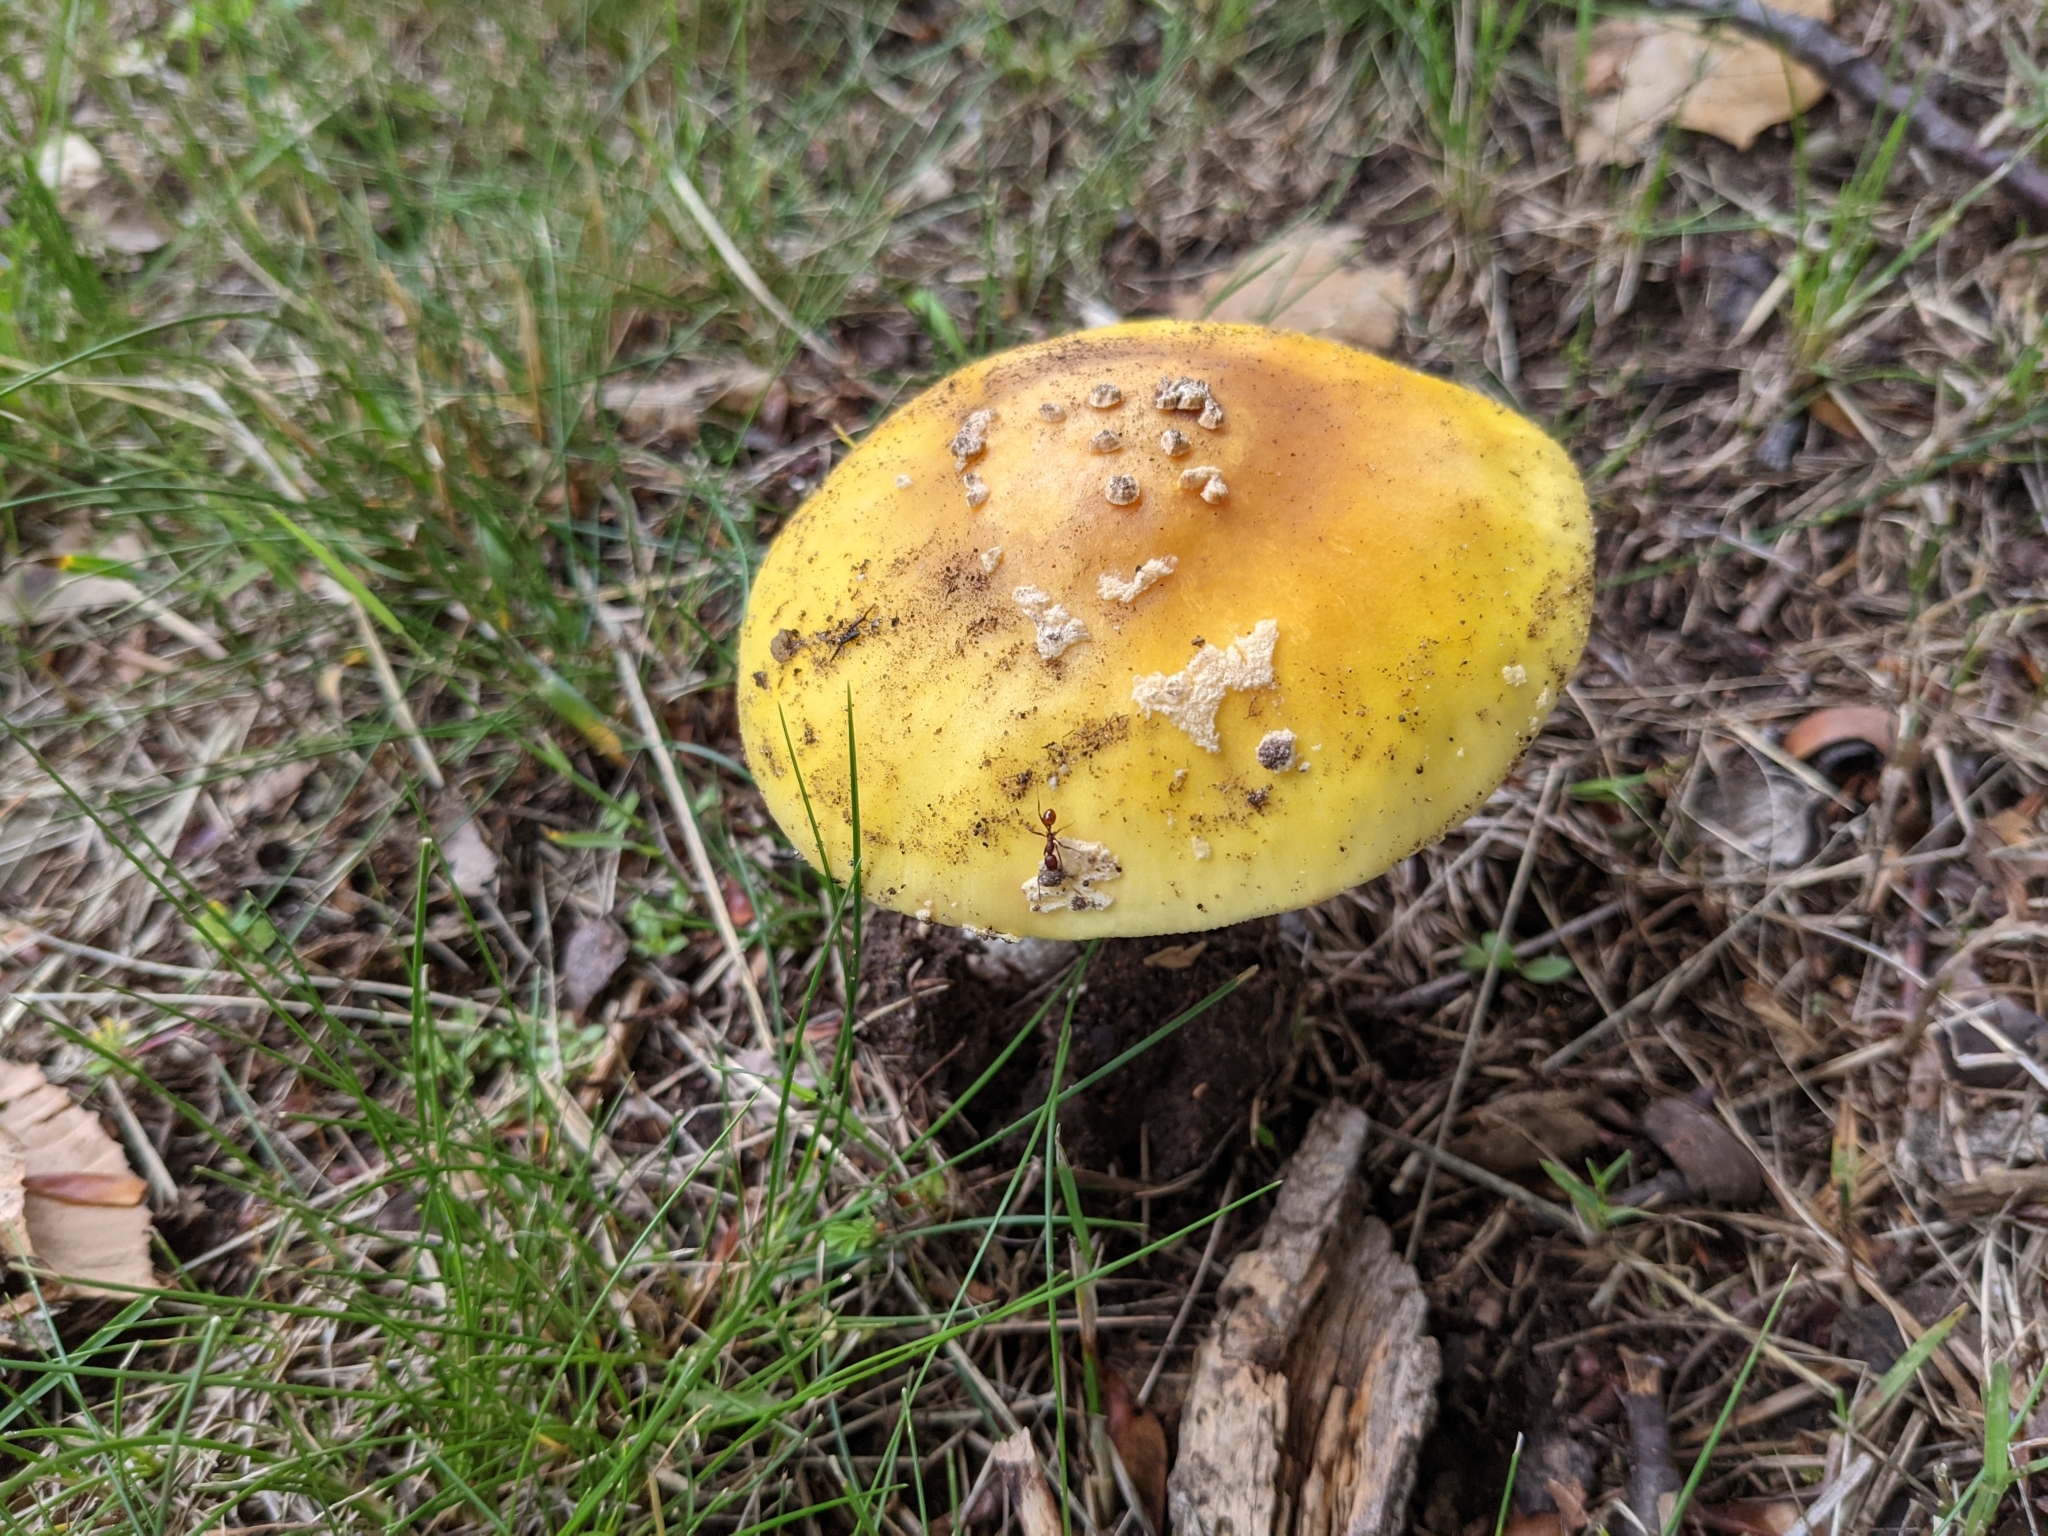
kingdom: Fungi
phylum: Basidiomycota
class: Agaricomycetes
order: Agaricales
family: Amanitaceae
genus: Amanita
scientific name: Amanita flavorubens
